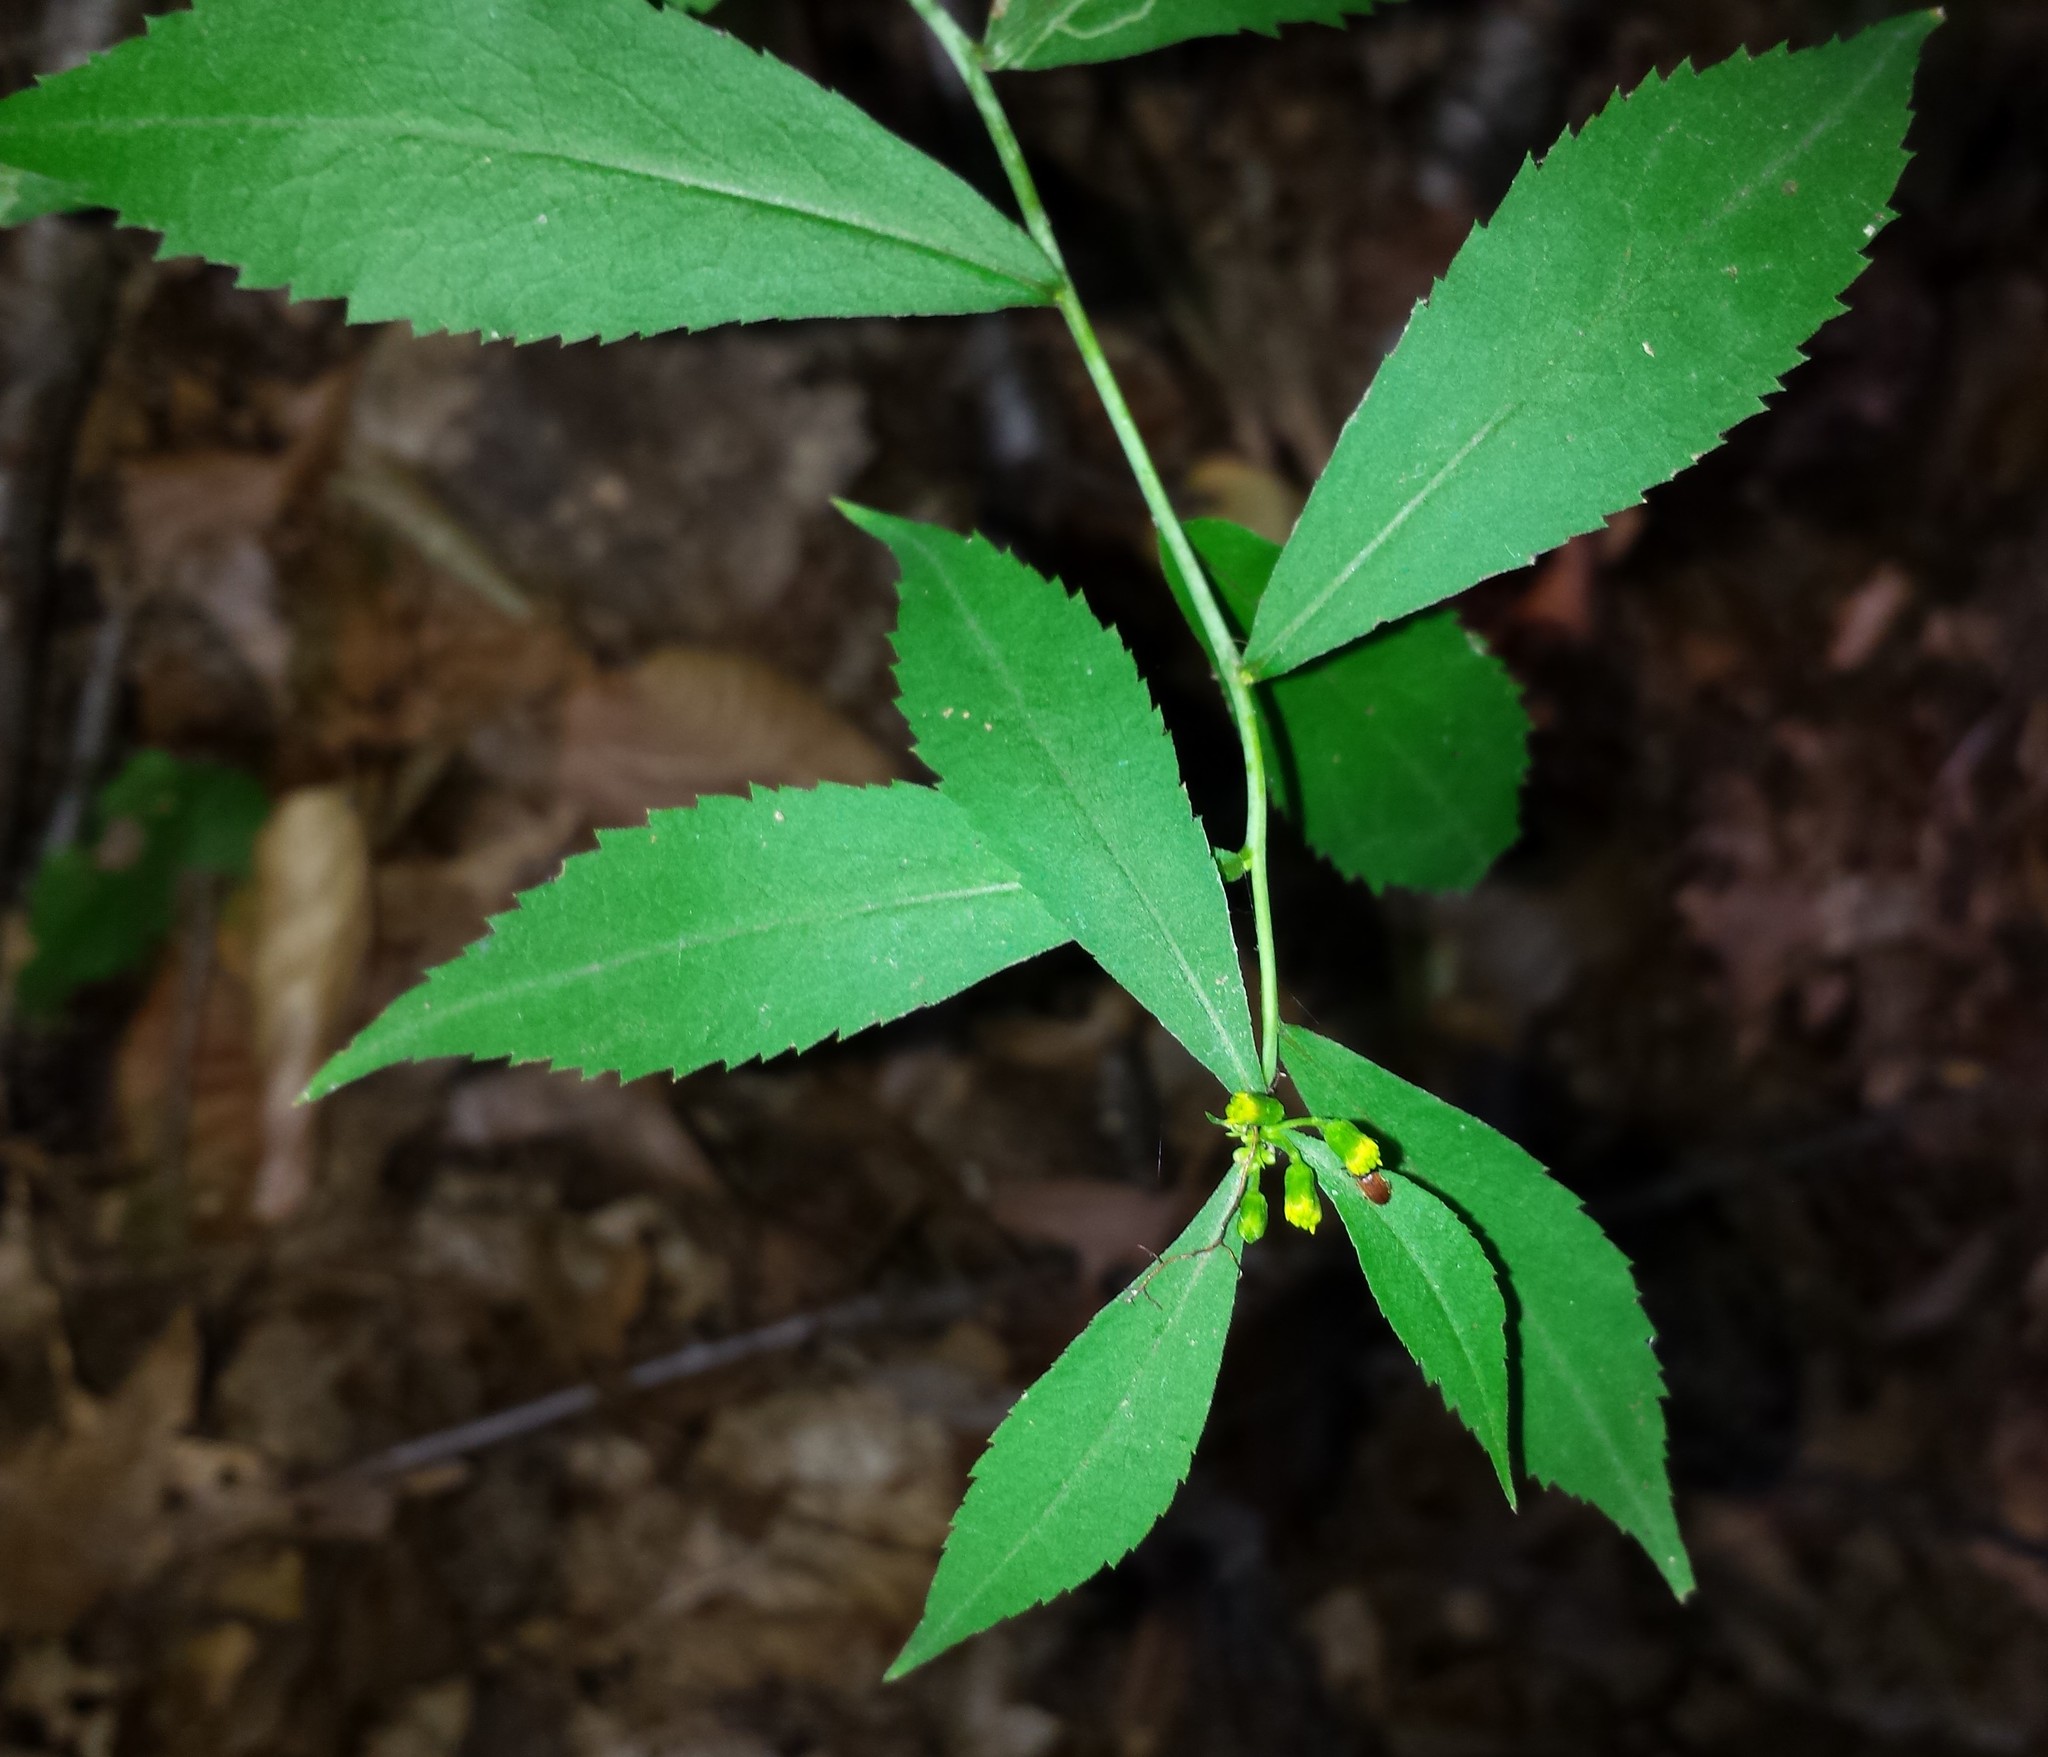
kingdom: Plantae
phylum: Tracheophyta
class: Magnoliopsida
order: Asterales
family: Asteraceae
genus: Solidago
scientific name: Solidago caesia
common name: Woodland goldenrod
